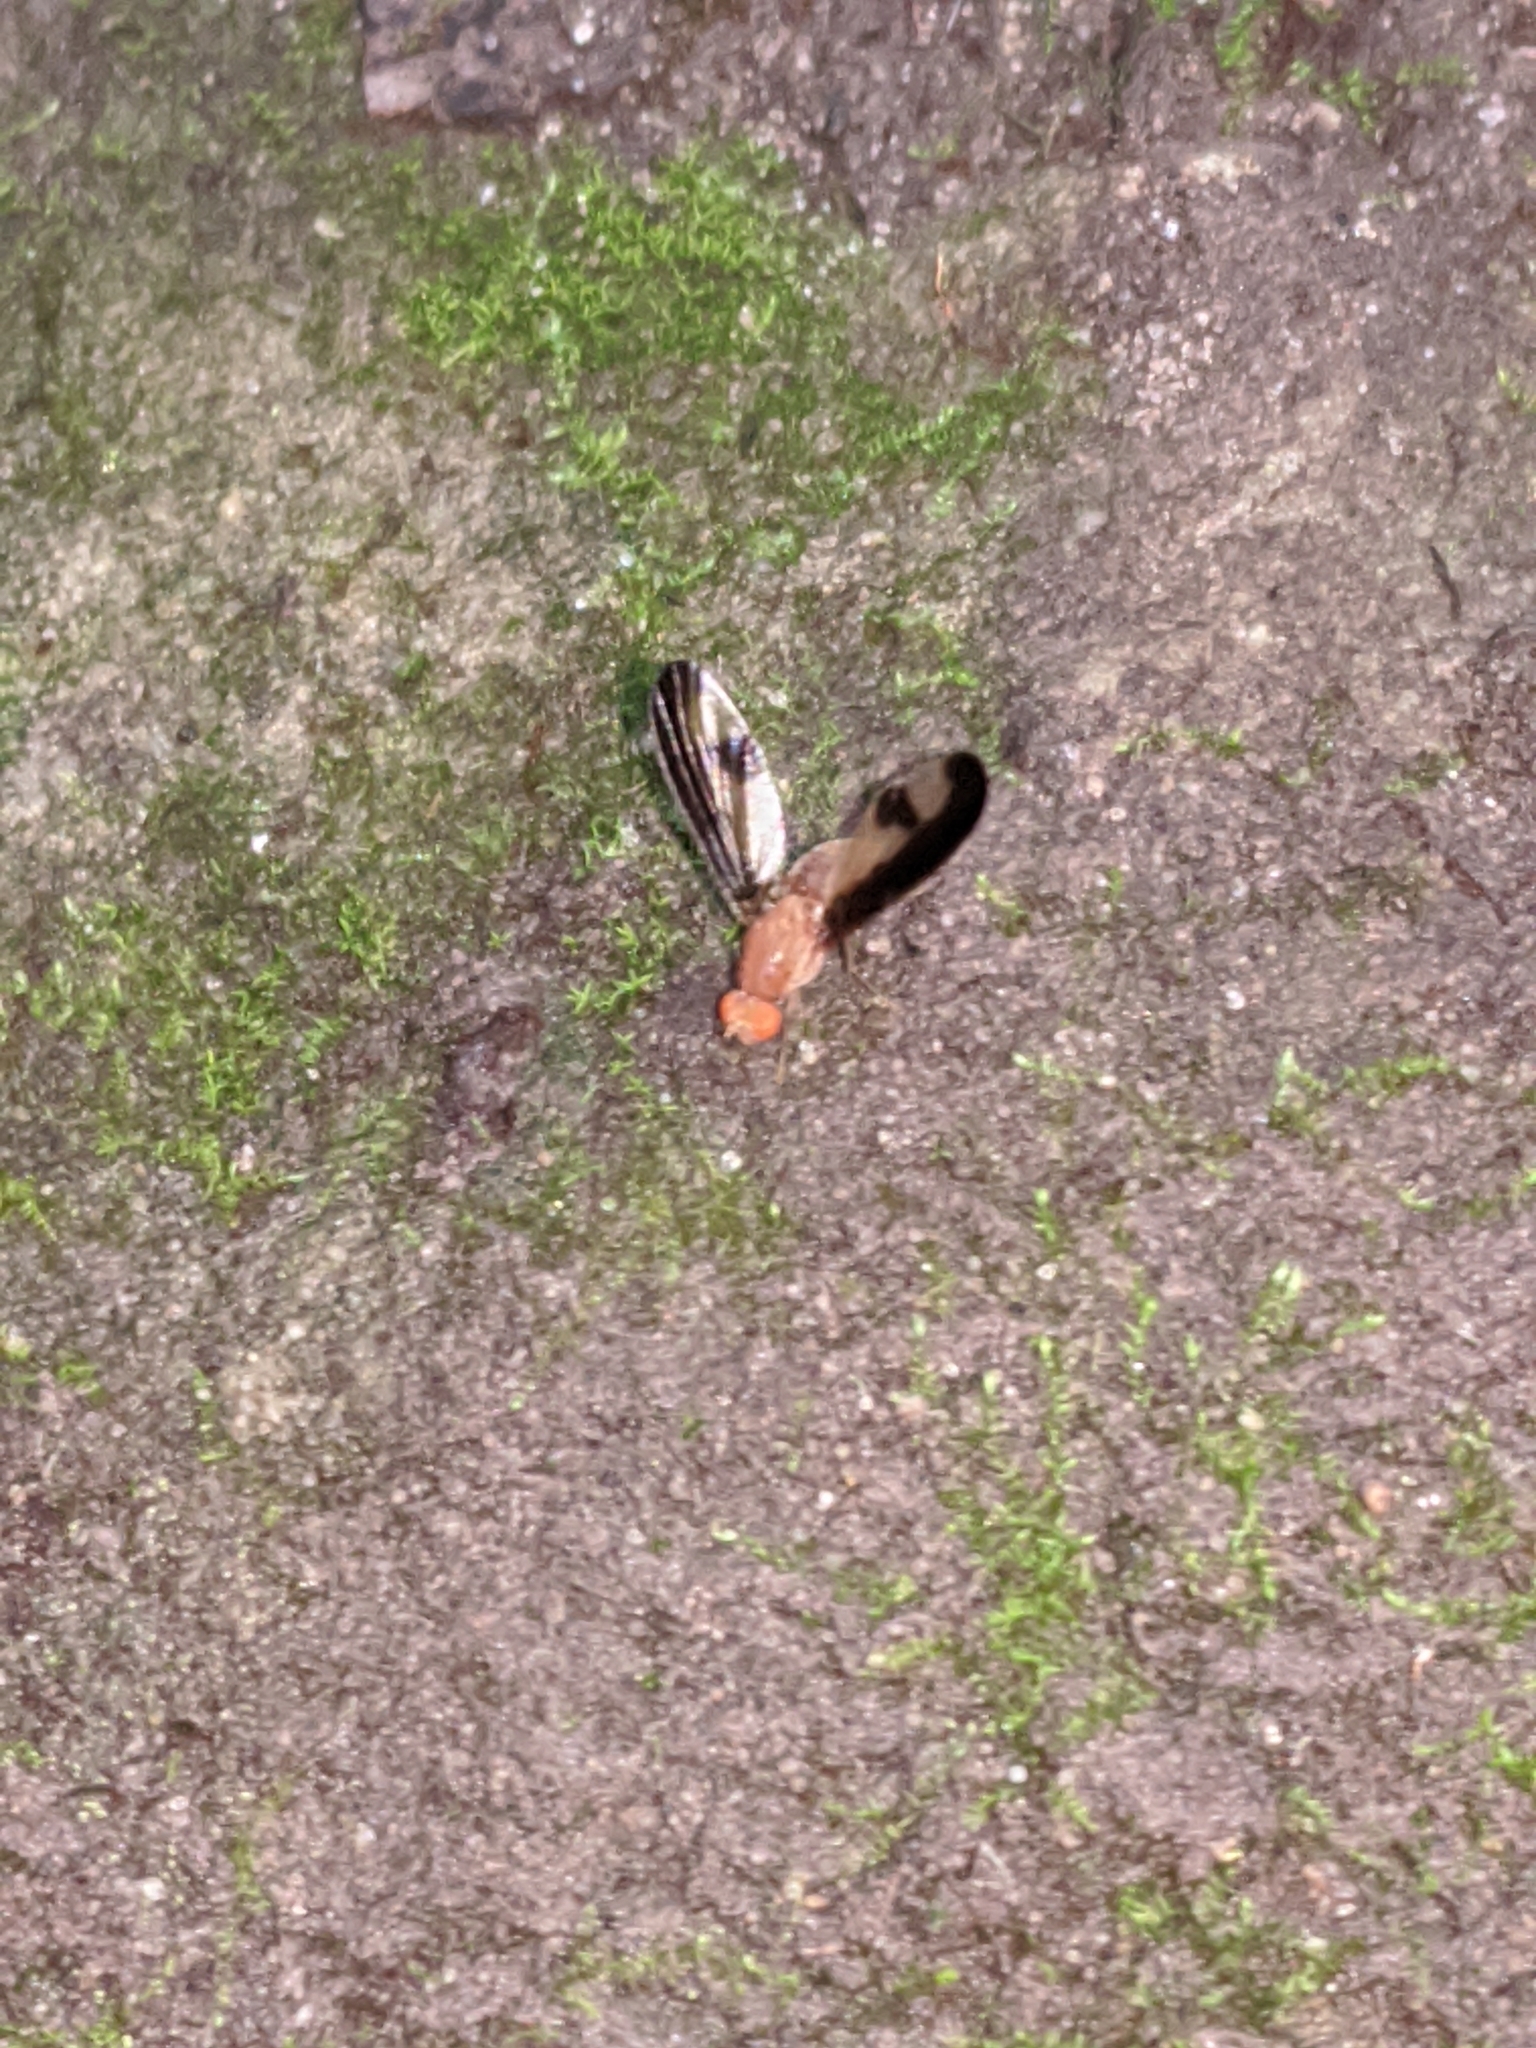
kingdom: Animalia
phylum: Arthropoda
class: Insecta
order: Diptera
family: Pallopteridae
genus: Toxonevra
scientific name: Toxonevra superba
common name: Antlered flutter fly
